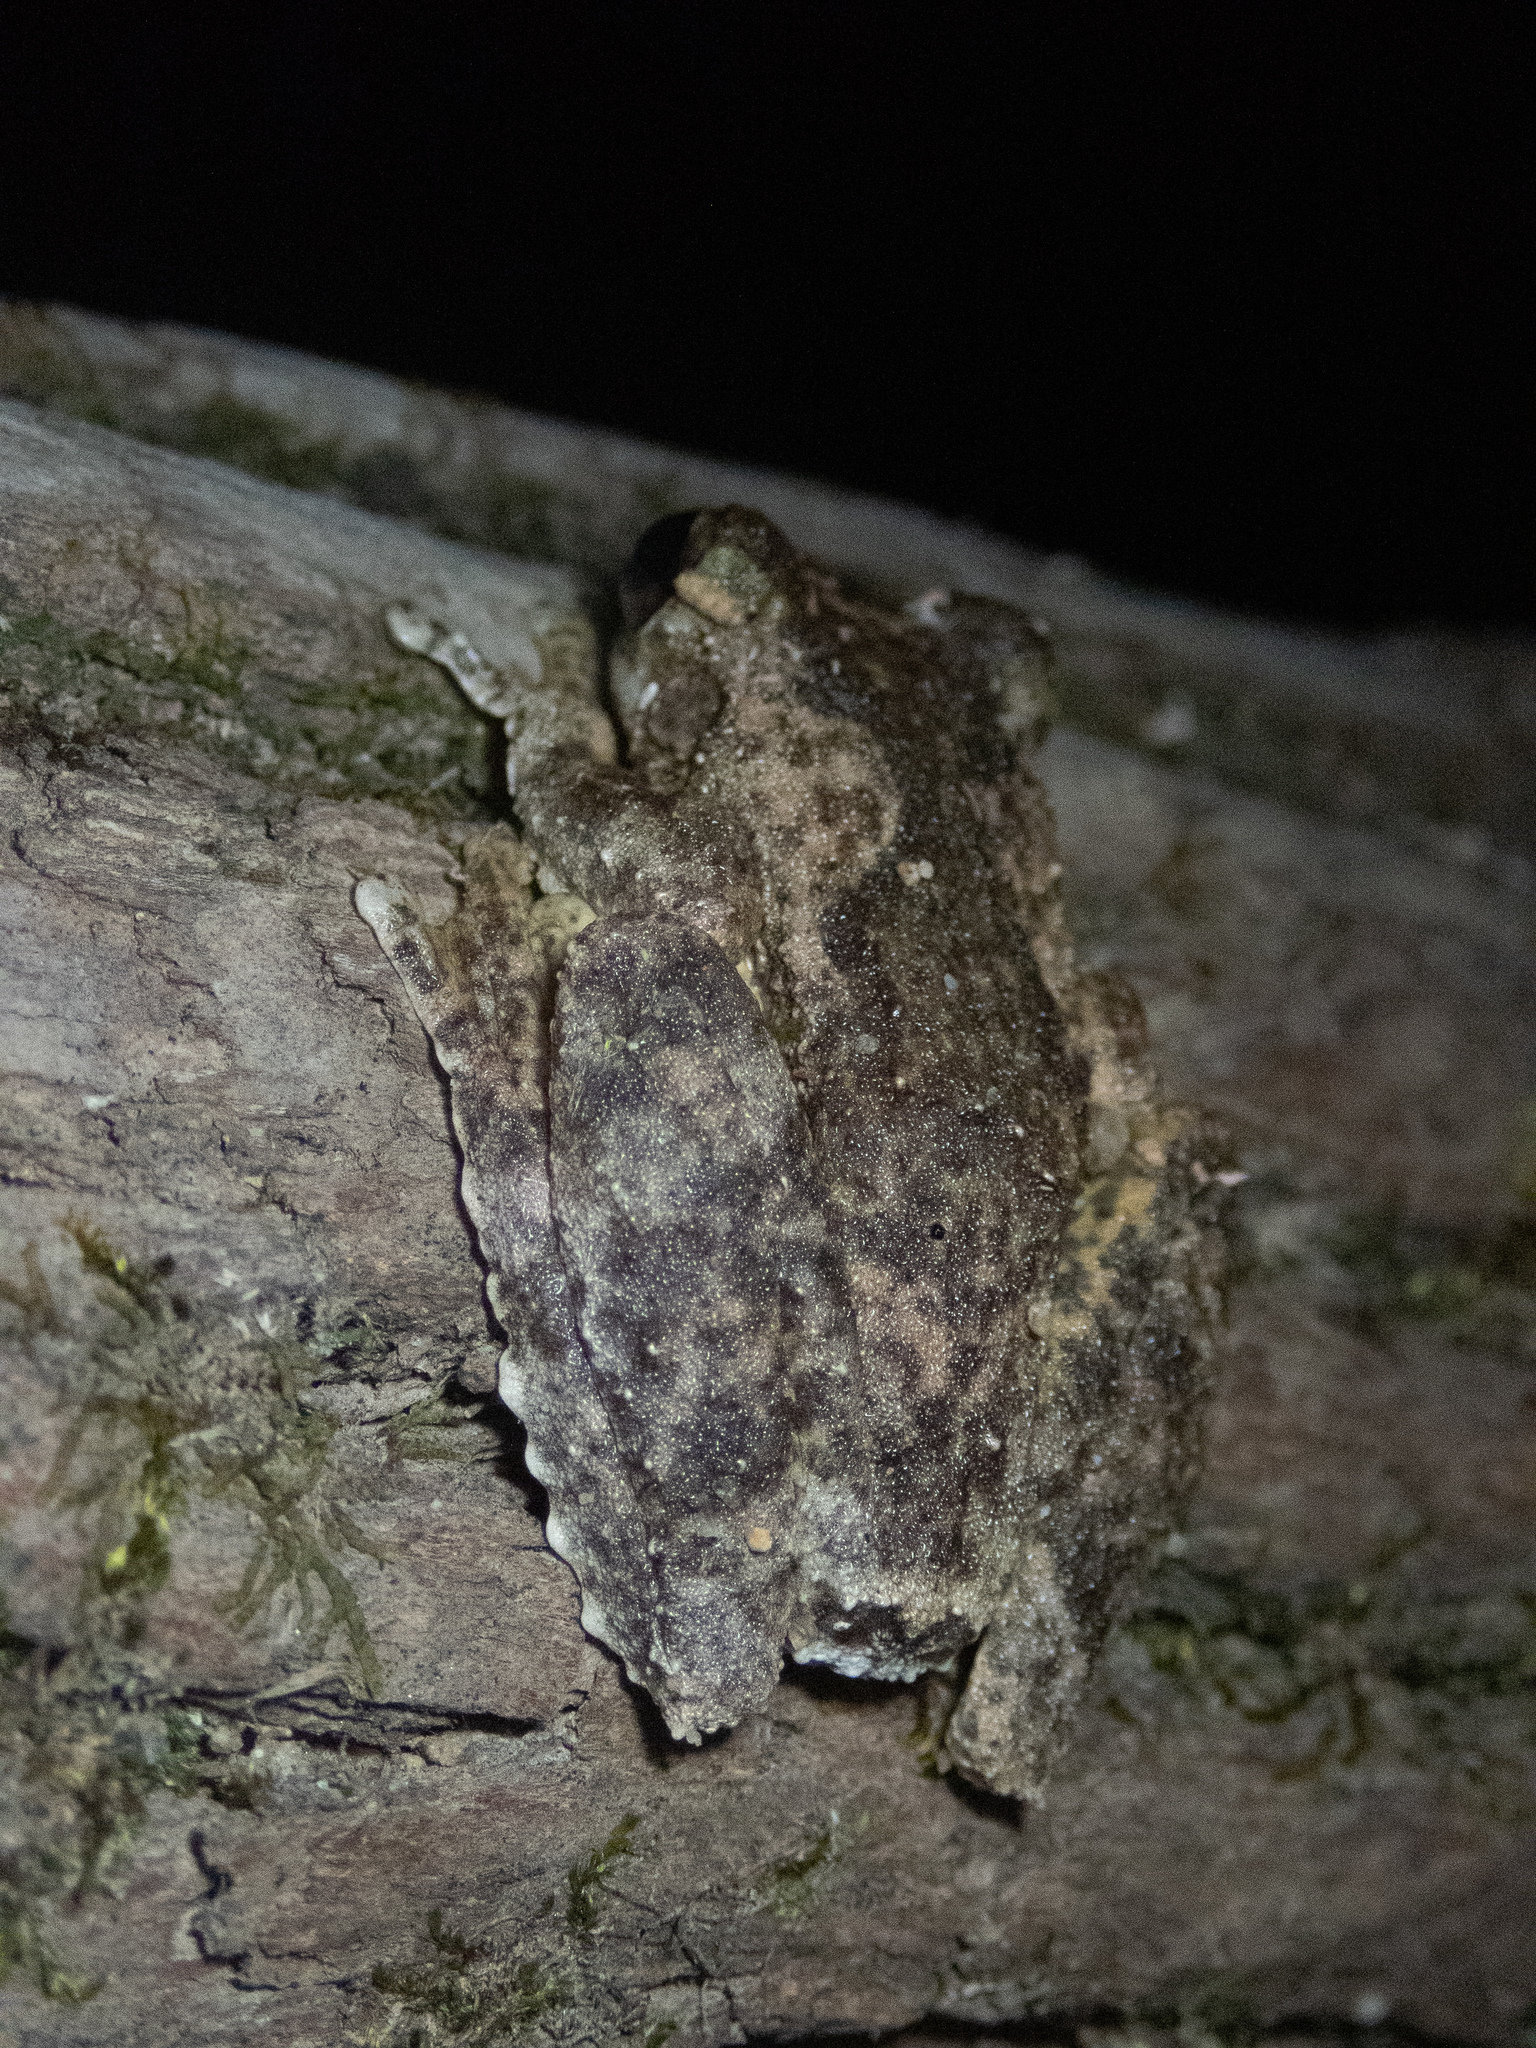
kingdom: Animalia
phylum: Chordata
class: Amphibia
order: Anura
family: Pelodryadidae
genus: Ranoidea
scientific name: Ranoidea serrata
